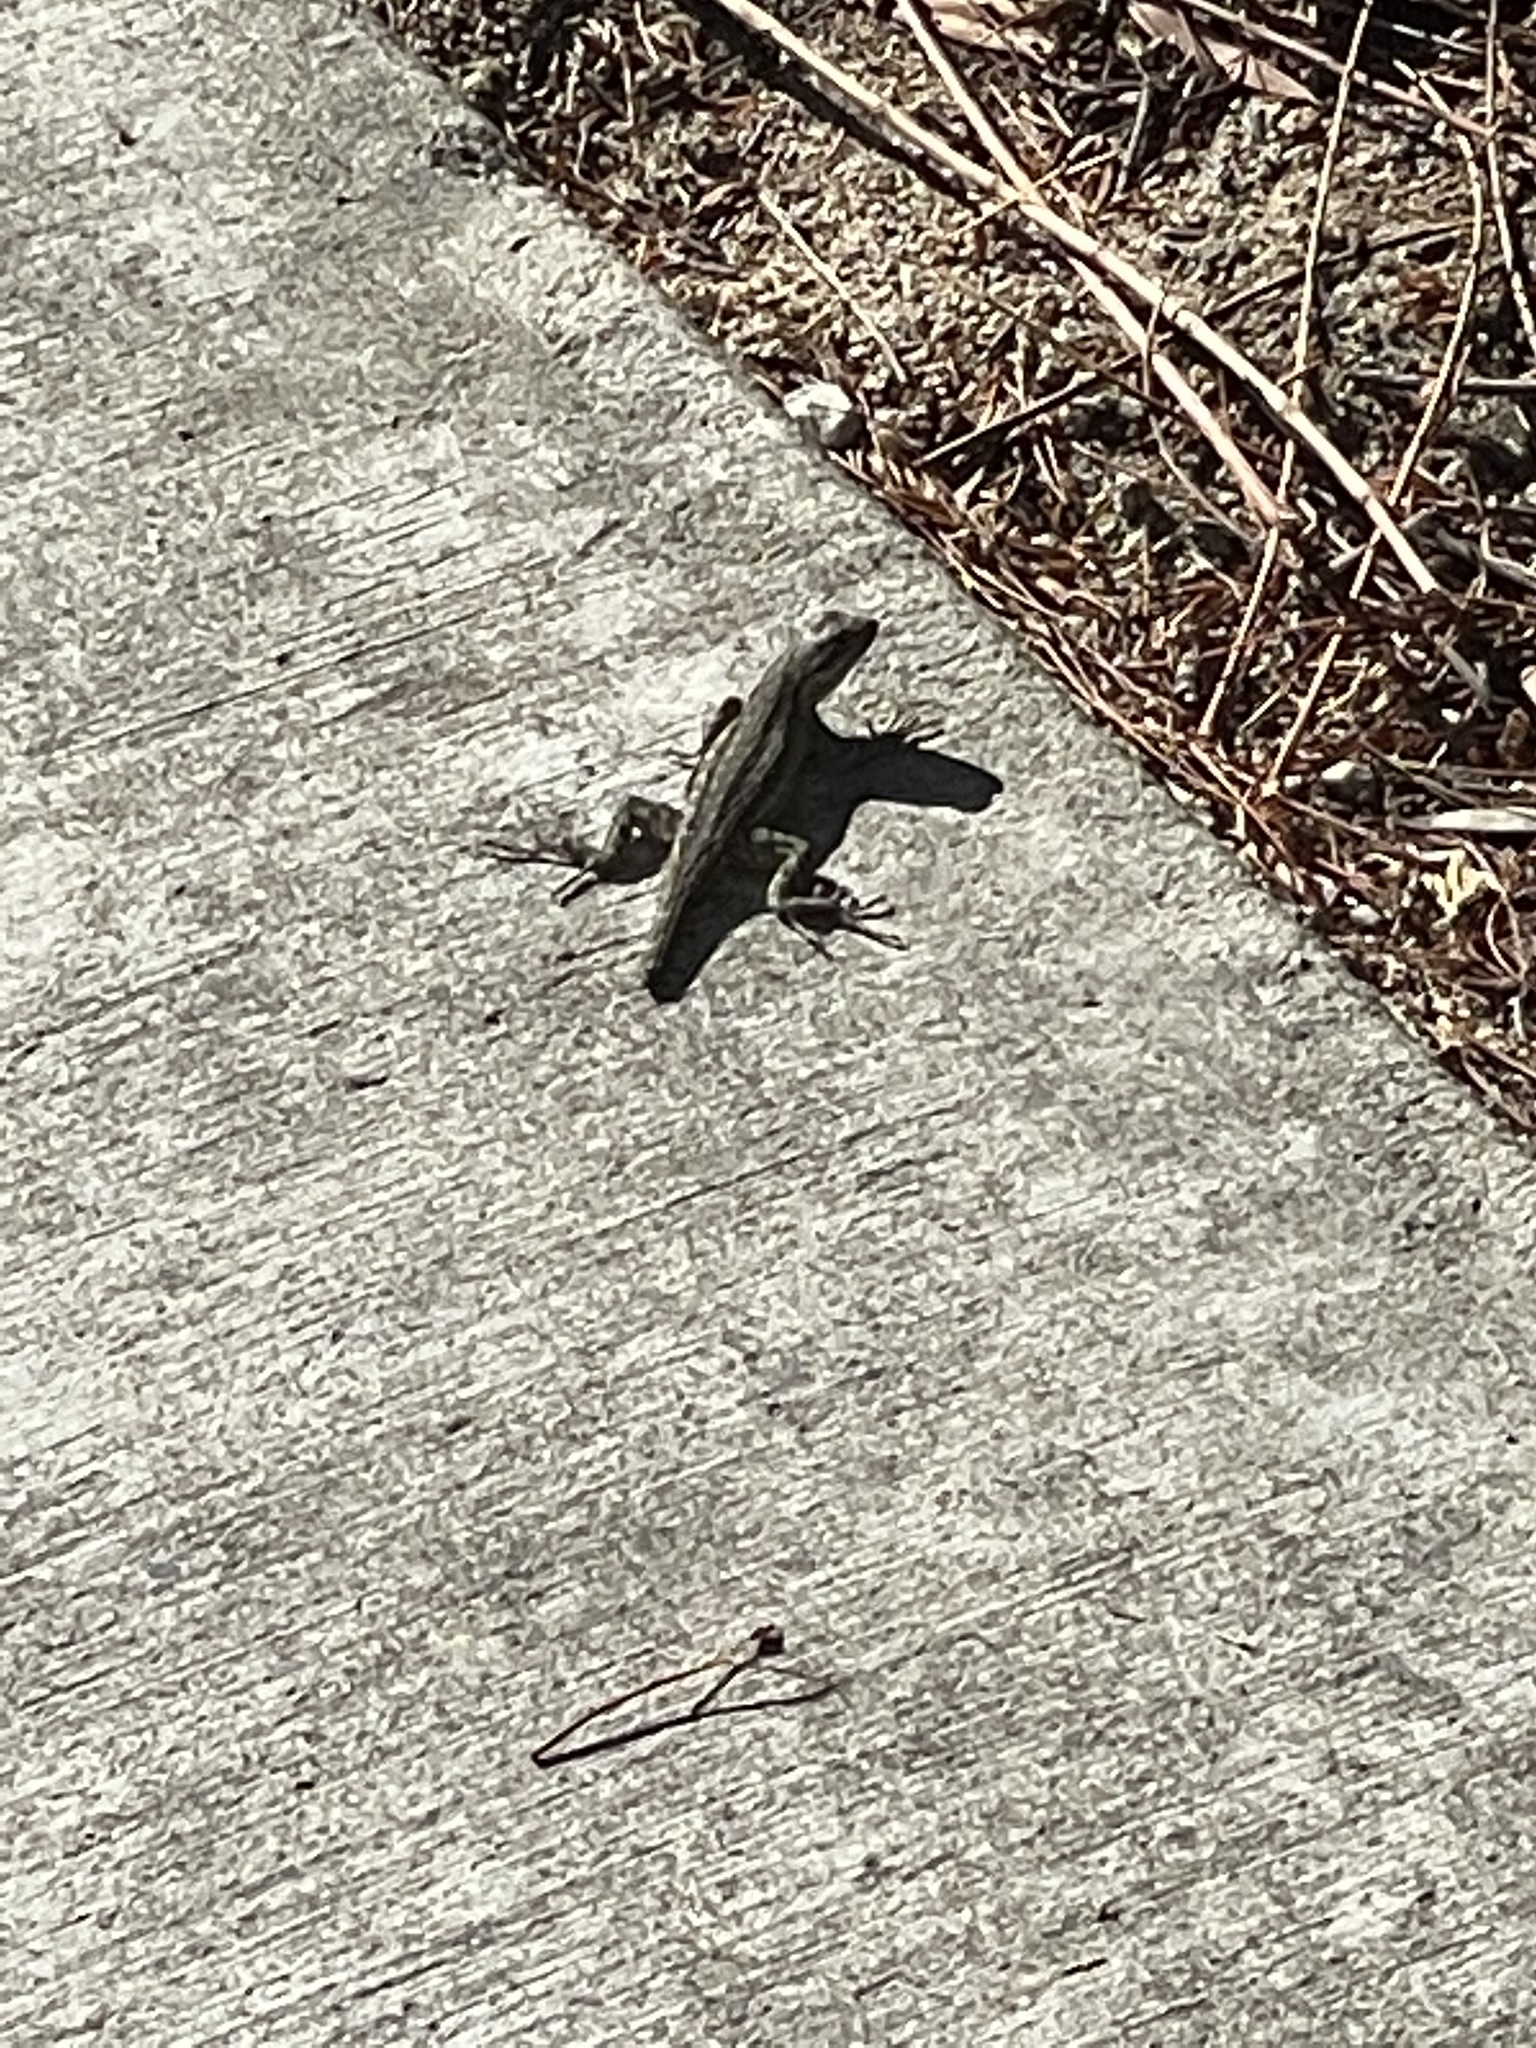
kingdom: Animalia
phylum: Chordata
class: Squamata
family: Phrynosomatidae
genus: Sceloporus
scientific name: Sceloporus occidentalis
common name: Western fence lizard
